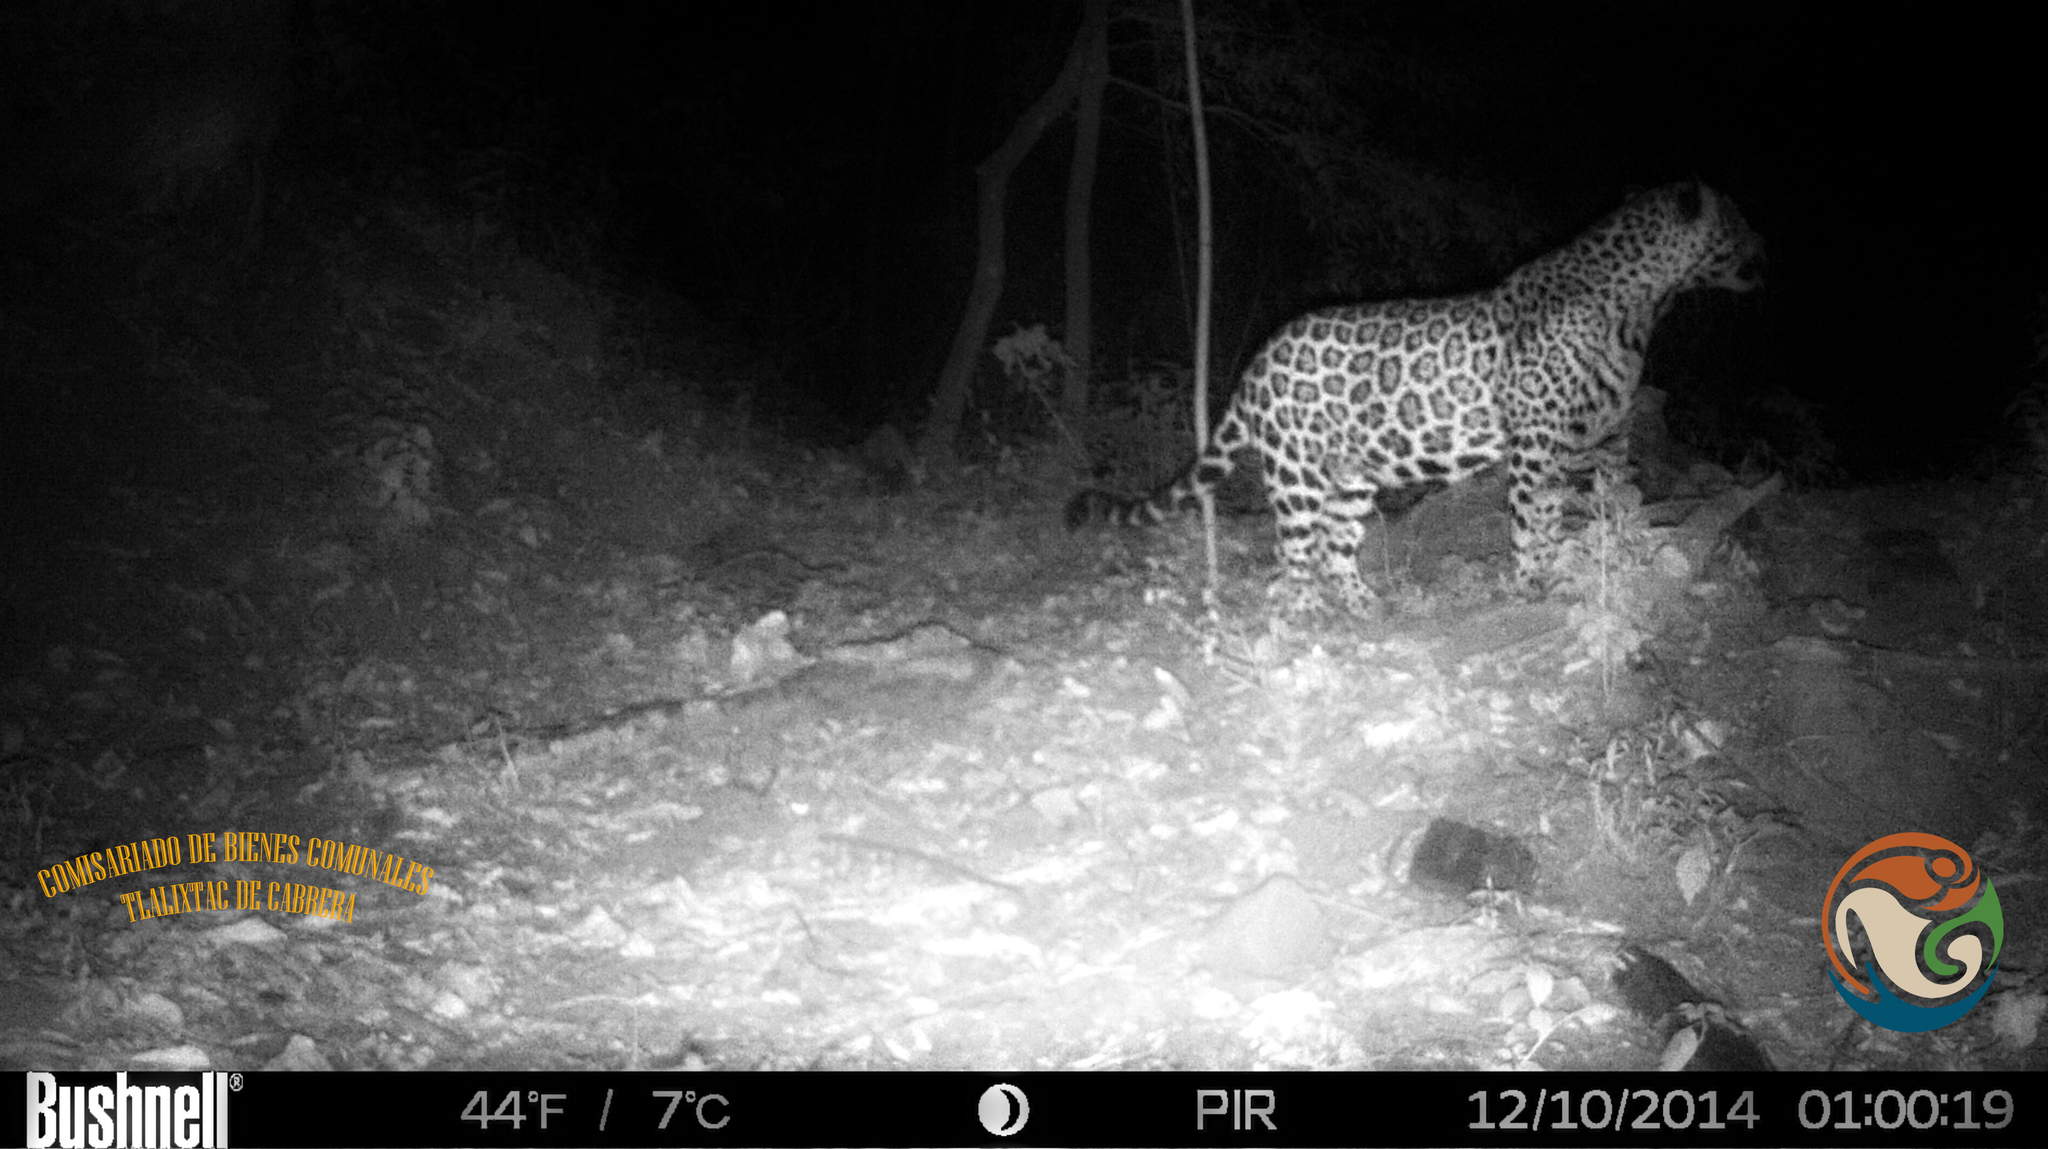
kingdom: Animalia
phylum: Chordata
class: Mammalia
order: Carnivora
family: Felidae
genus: Panthera
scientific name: Panthera onca
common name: Jaguar
